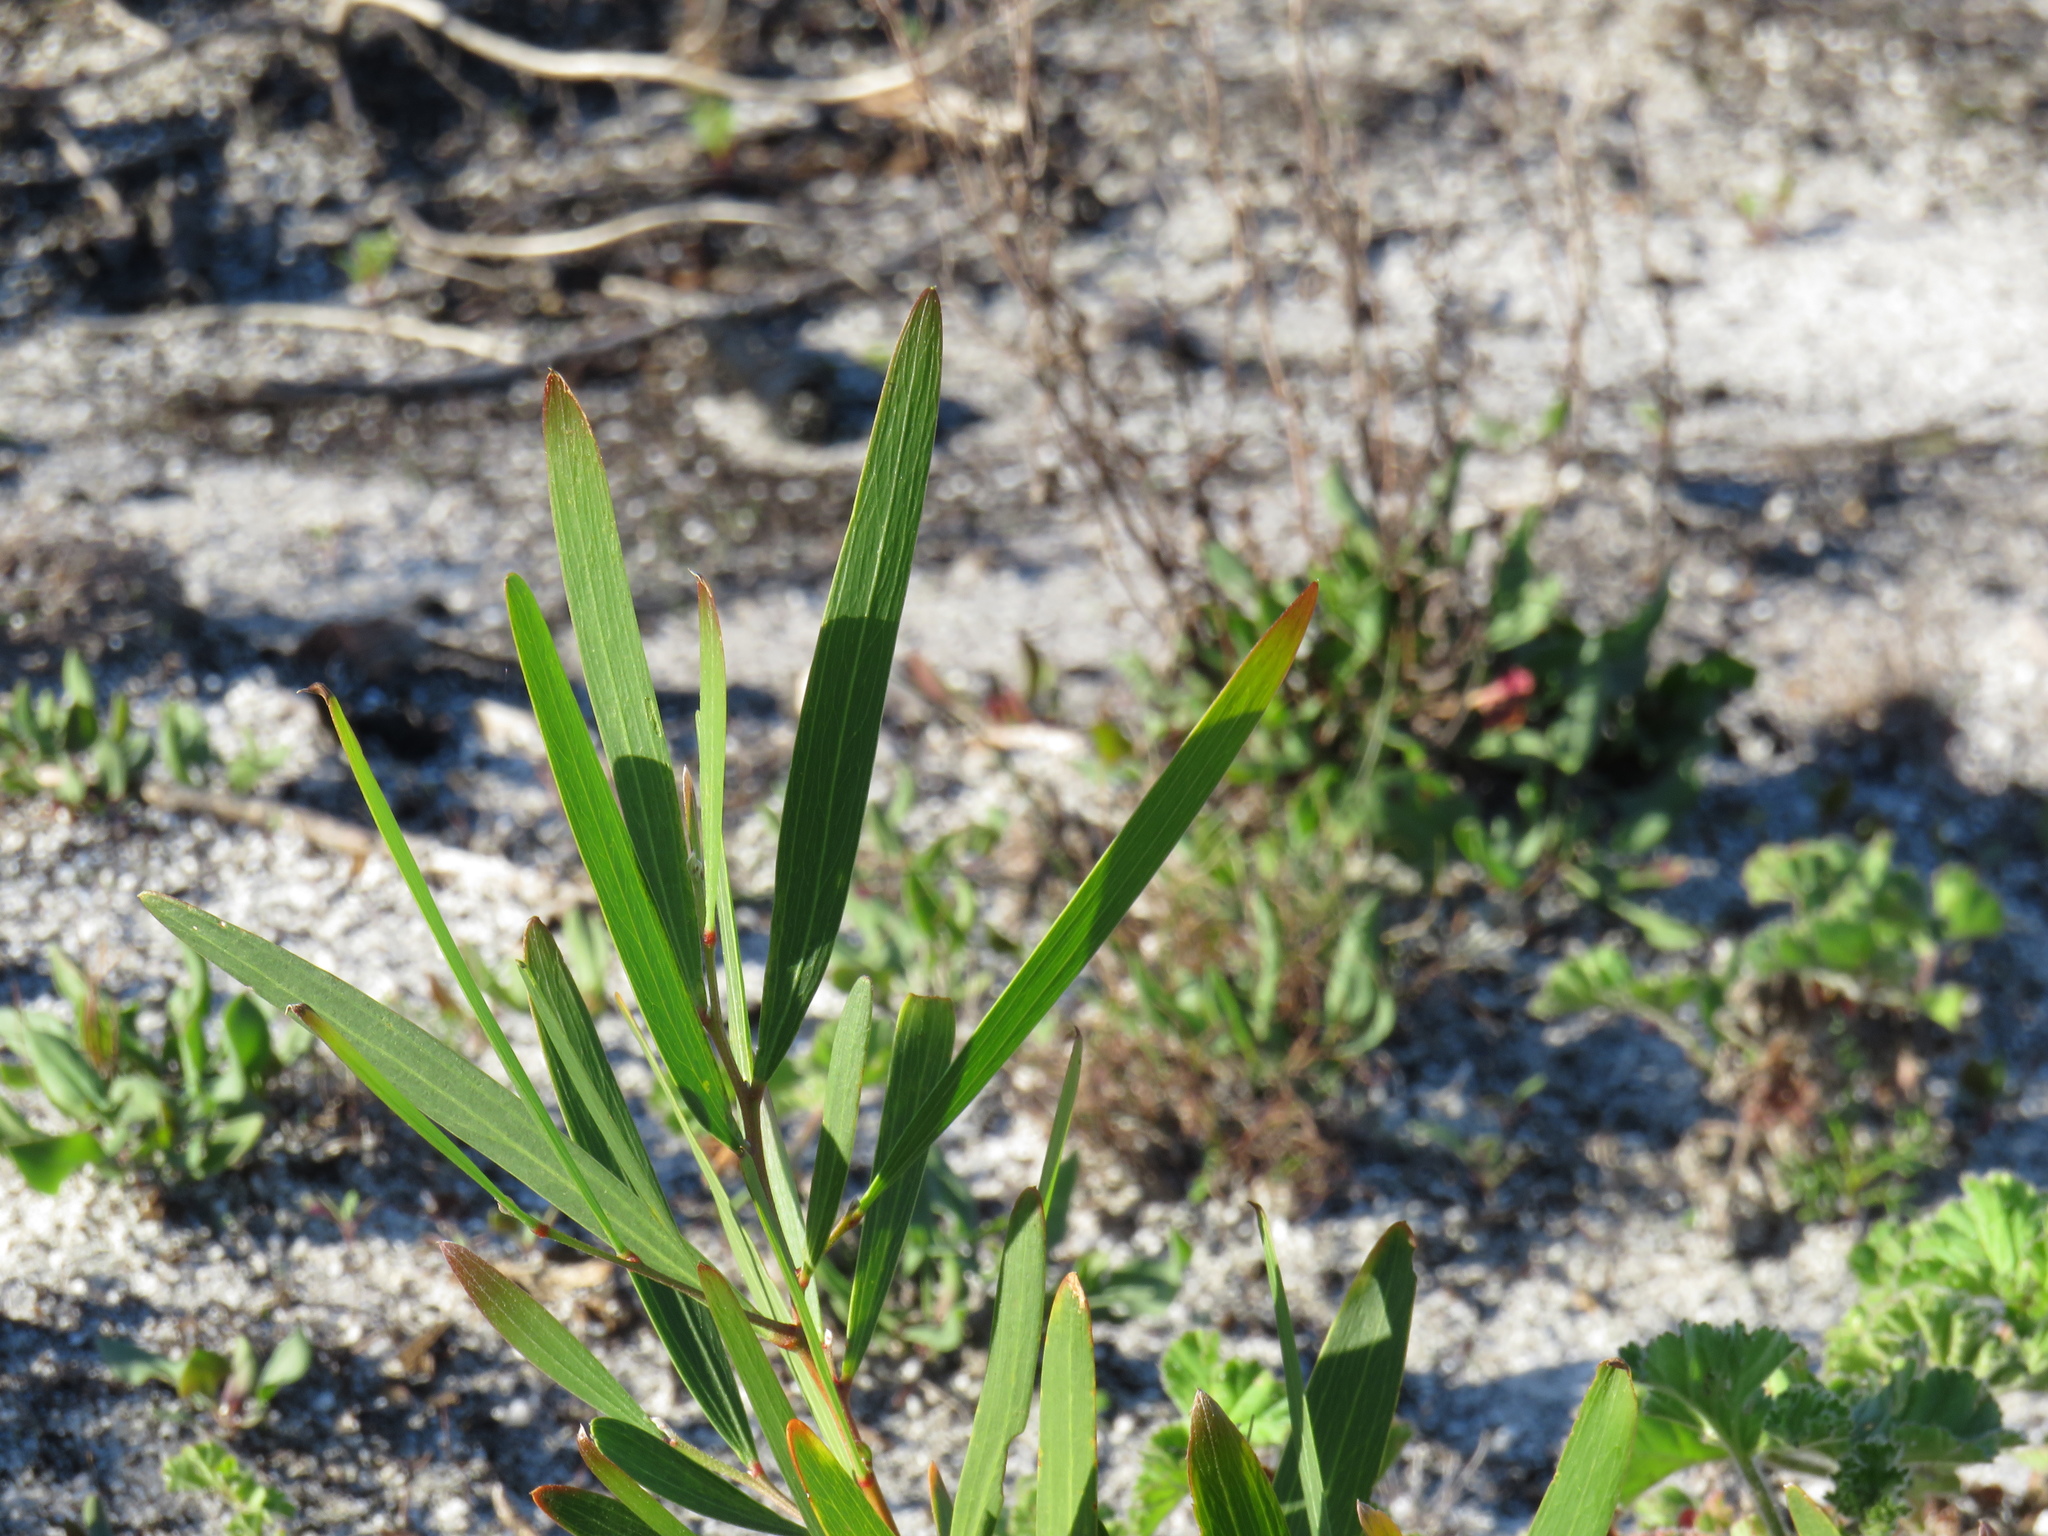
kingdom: Plantae
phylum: Tracheophyta
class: Magnoliopsida
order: Fabales
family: Fabaceae
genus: Acacia
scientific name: Acacia longifolia
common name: Sydney golden wattle
